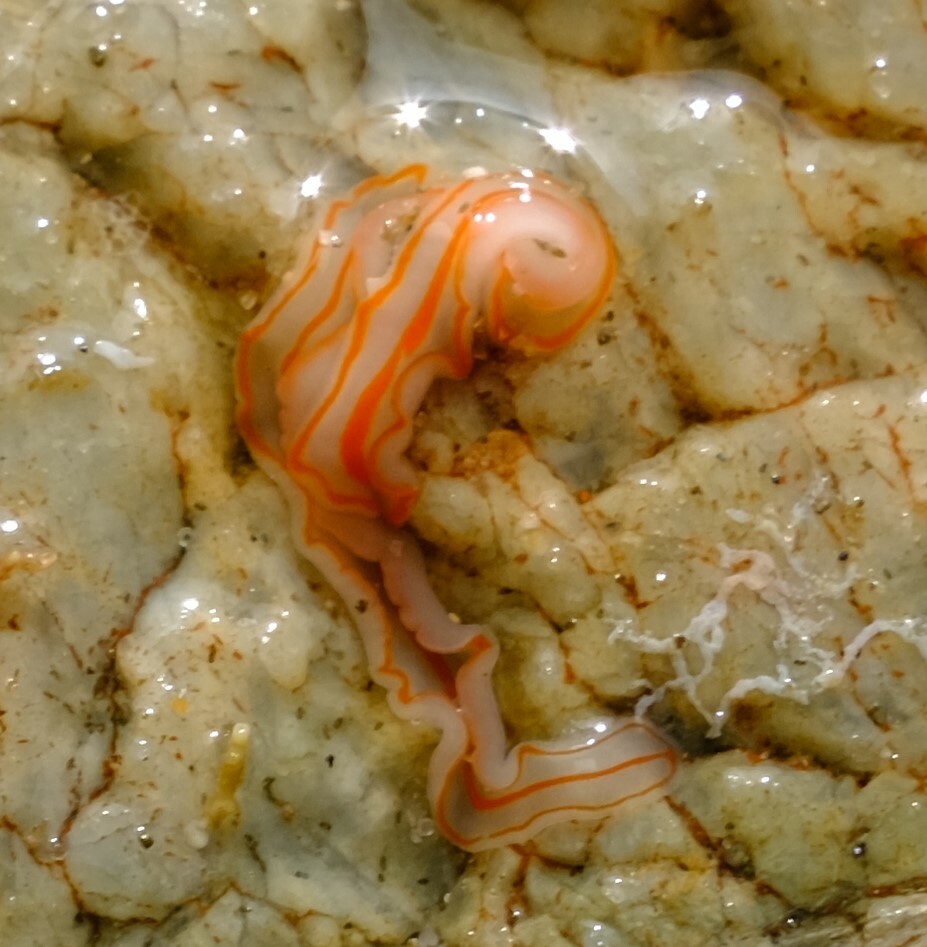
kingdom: Animalia
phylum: Platyhelminthes
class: Turbellaria
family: Cestoplanidae
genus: Cestoplana
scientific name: Cestoplana rubrocincta
